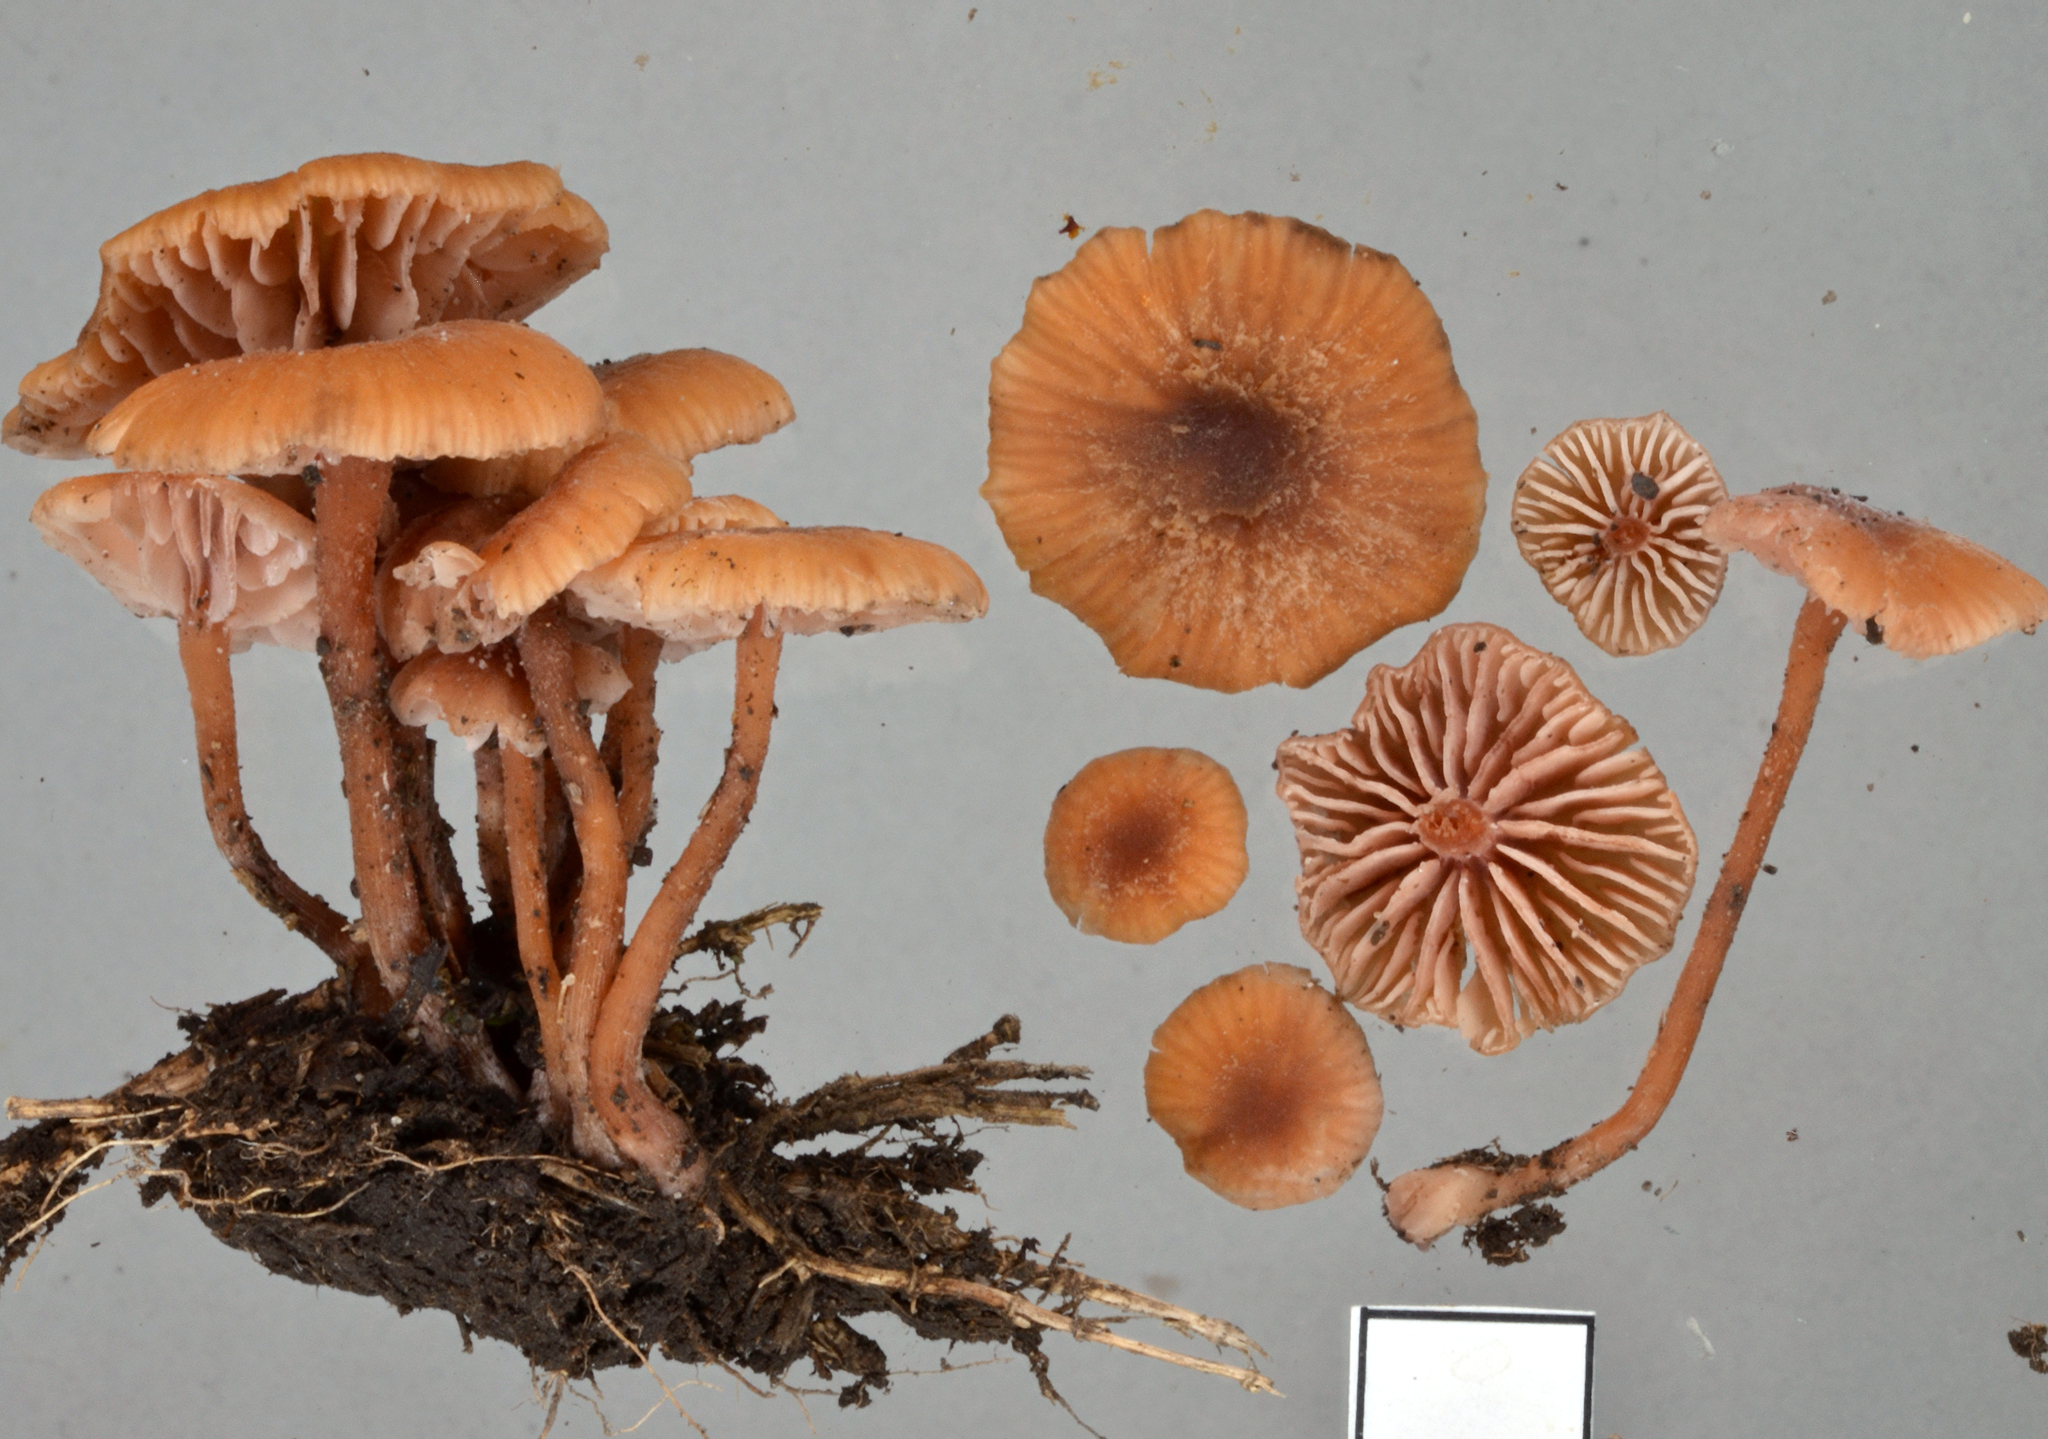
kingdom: Fungi
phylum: Basidiomycota
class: Agaricomycetes
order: Agaricales
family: Hydnangiaceae
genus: Laccaria
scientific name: Laccaria tetraspora
